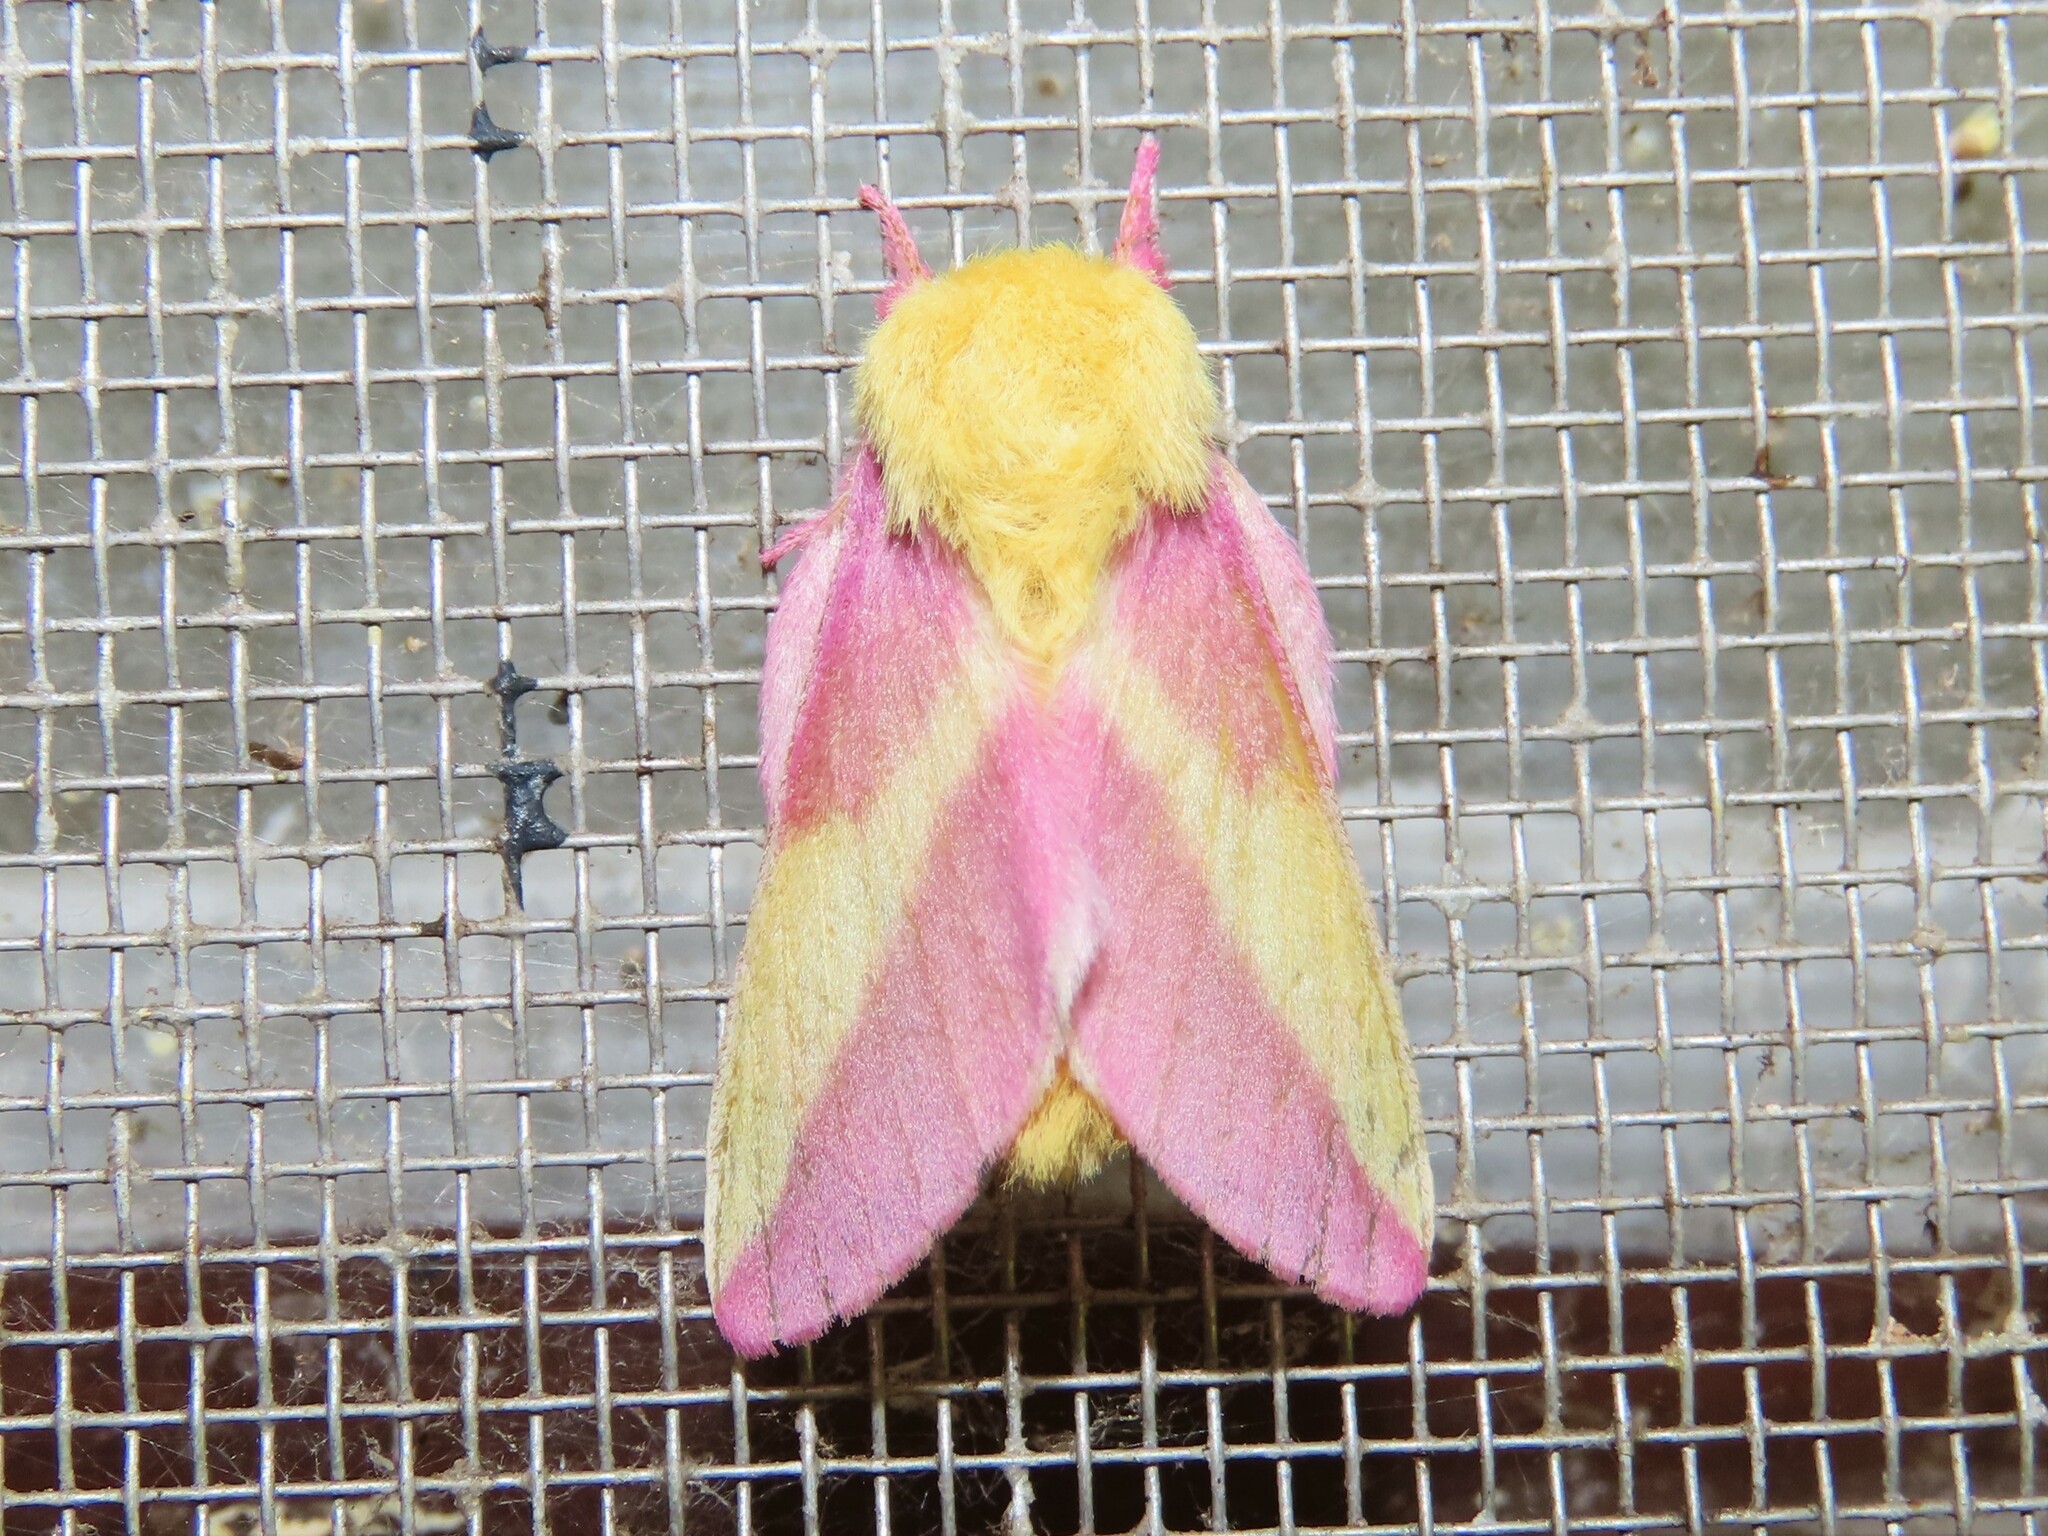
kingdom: Animalia
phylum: Arthropoda
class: Insecta
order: Lepidoptera
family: Saturniidae
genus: Dryocampa
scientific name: Dryocampa rubicunda
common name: Rosy maple moth
